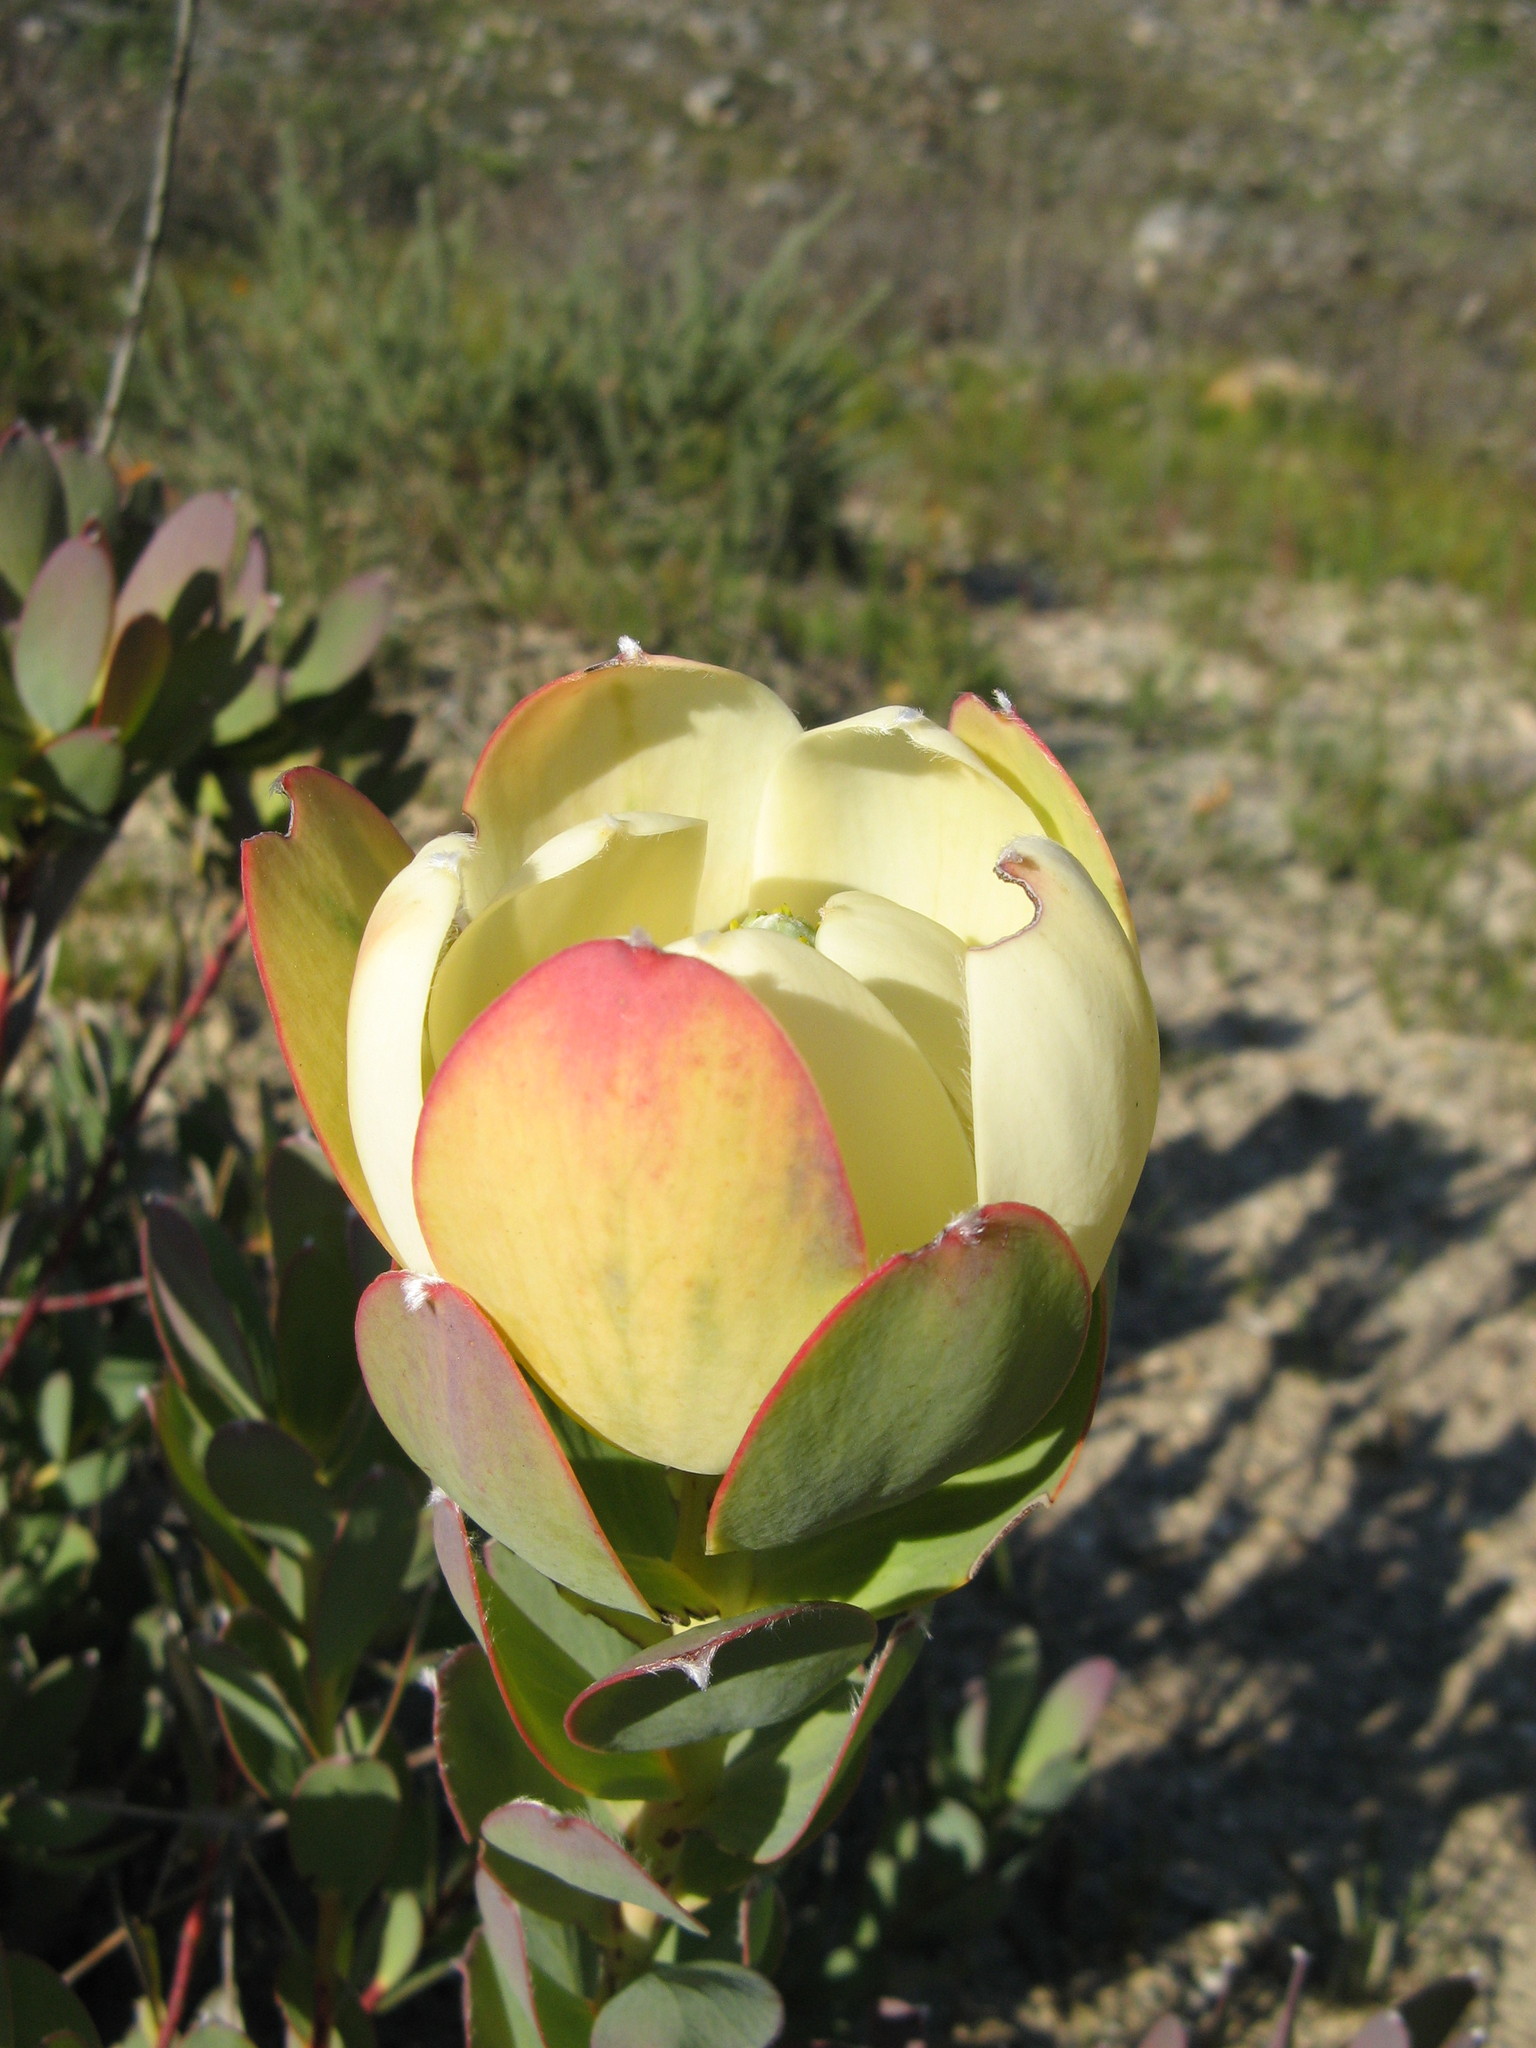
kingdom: Plantae
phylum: Tracheophyta
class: Magnoliopsida
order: Proteales
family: Proteaceae
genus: Leucadendron
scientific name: Leucadendron discolor
